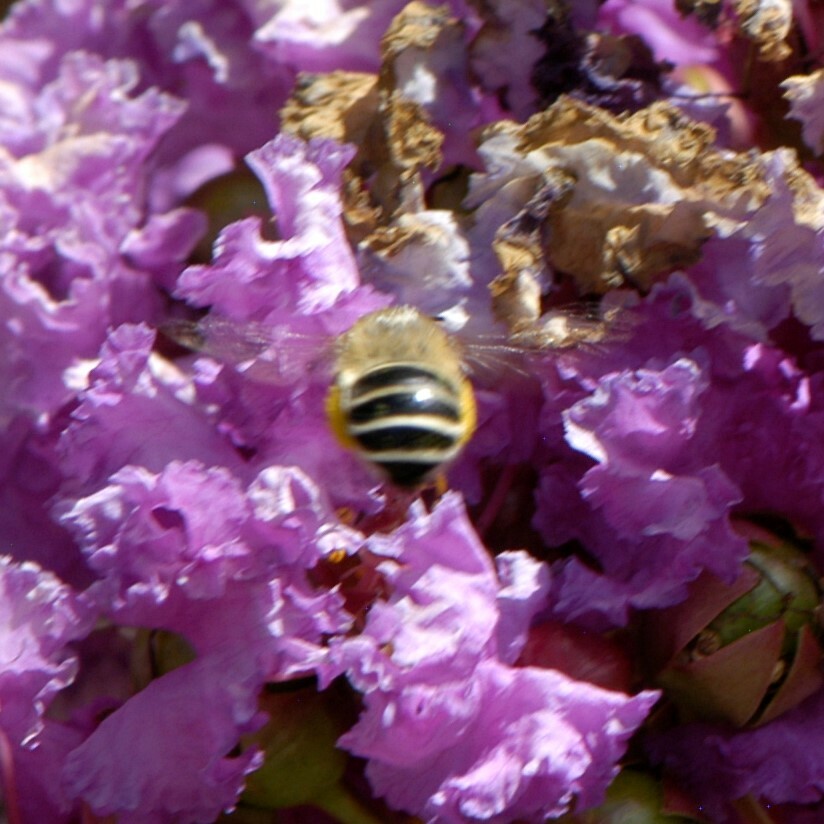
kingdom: Animalia
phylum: Arthropoda
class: Insecta
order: Hymenoptera
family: Apidae
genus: Anthophora
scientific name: Anthophora californica
